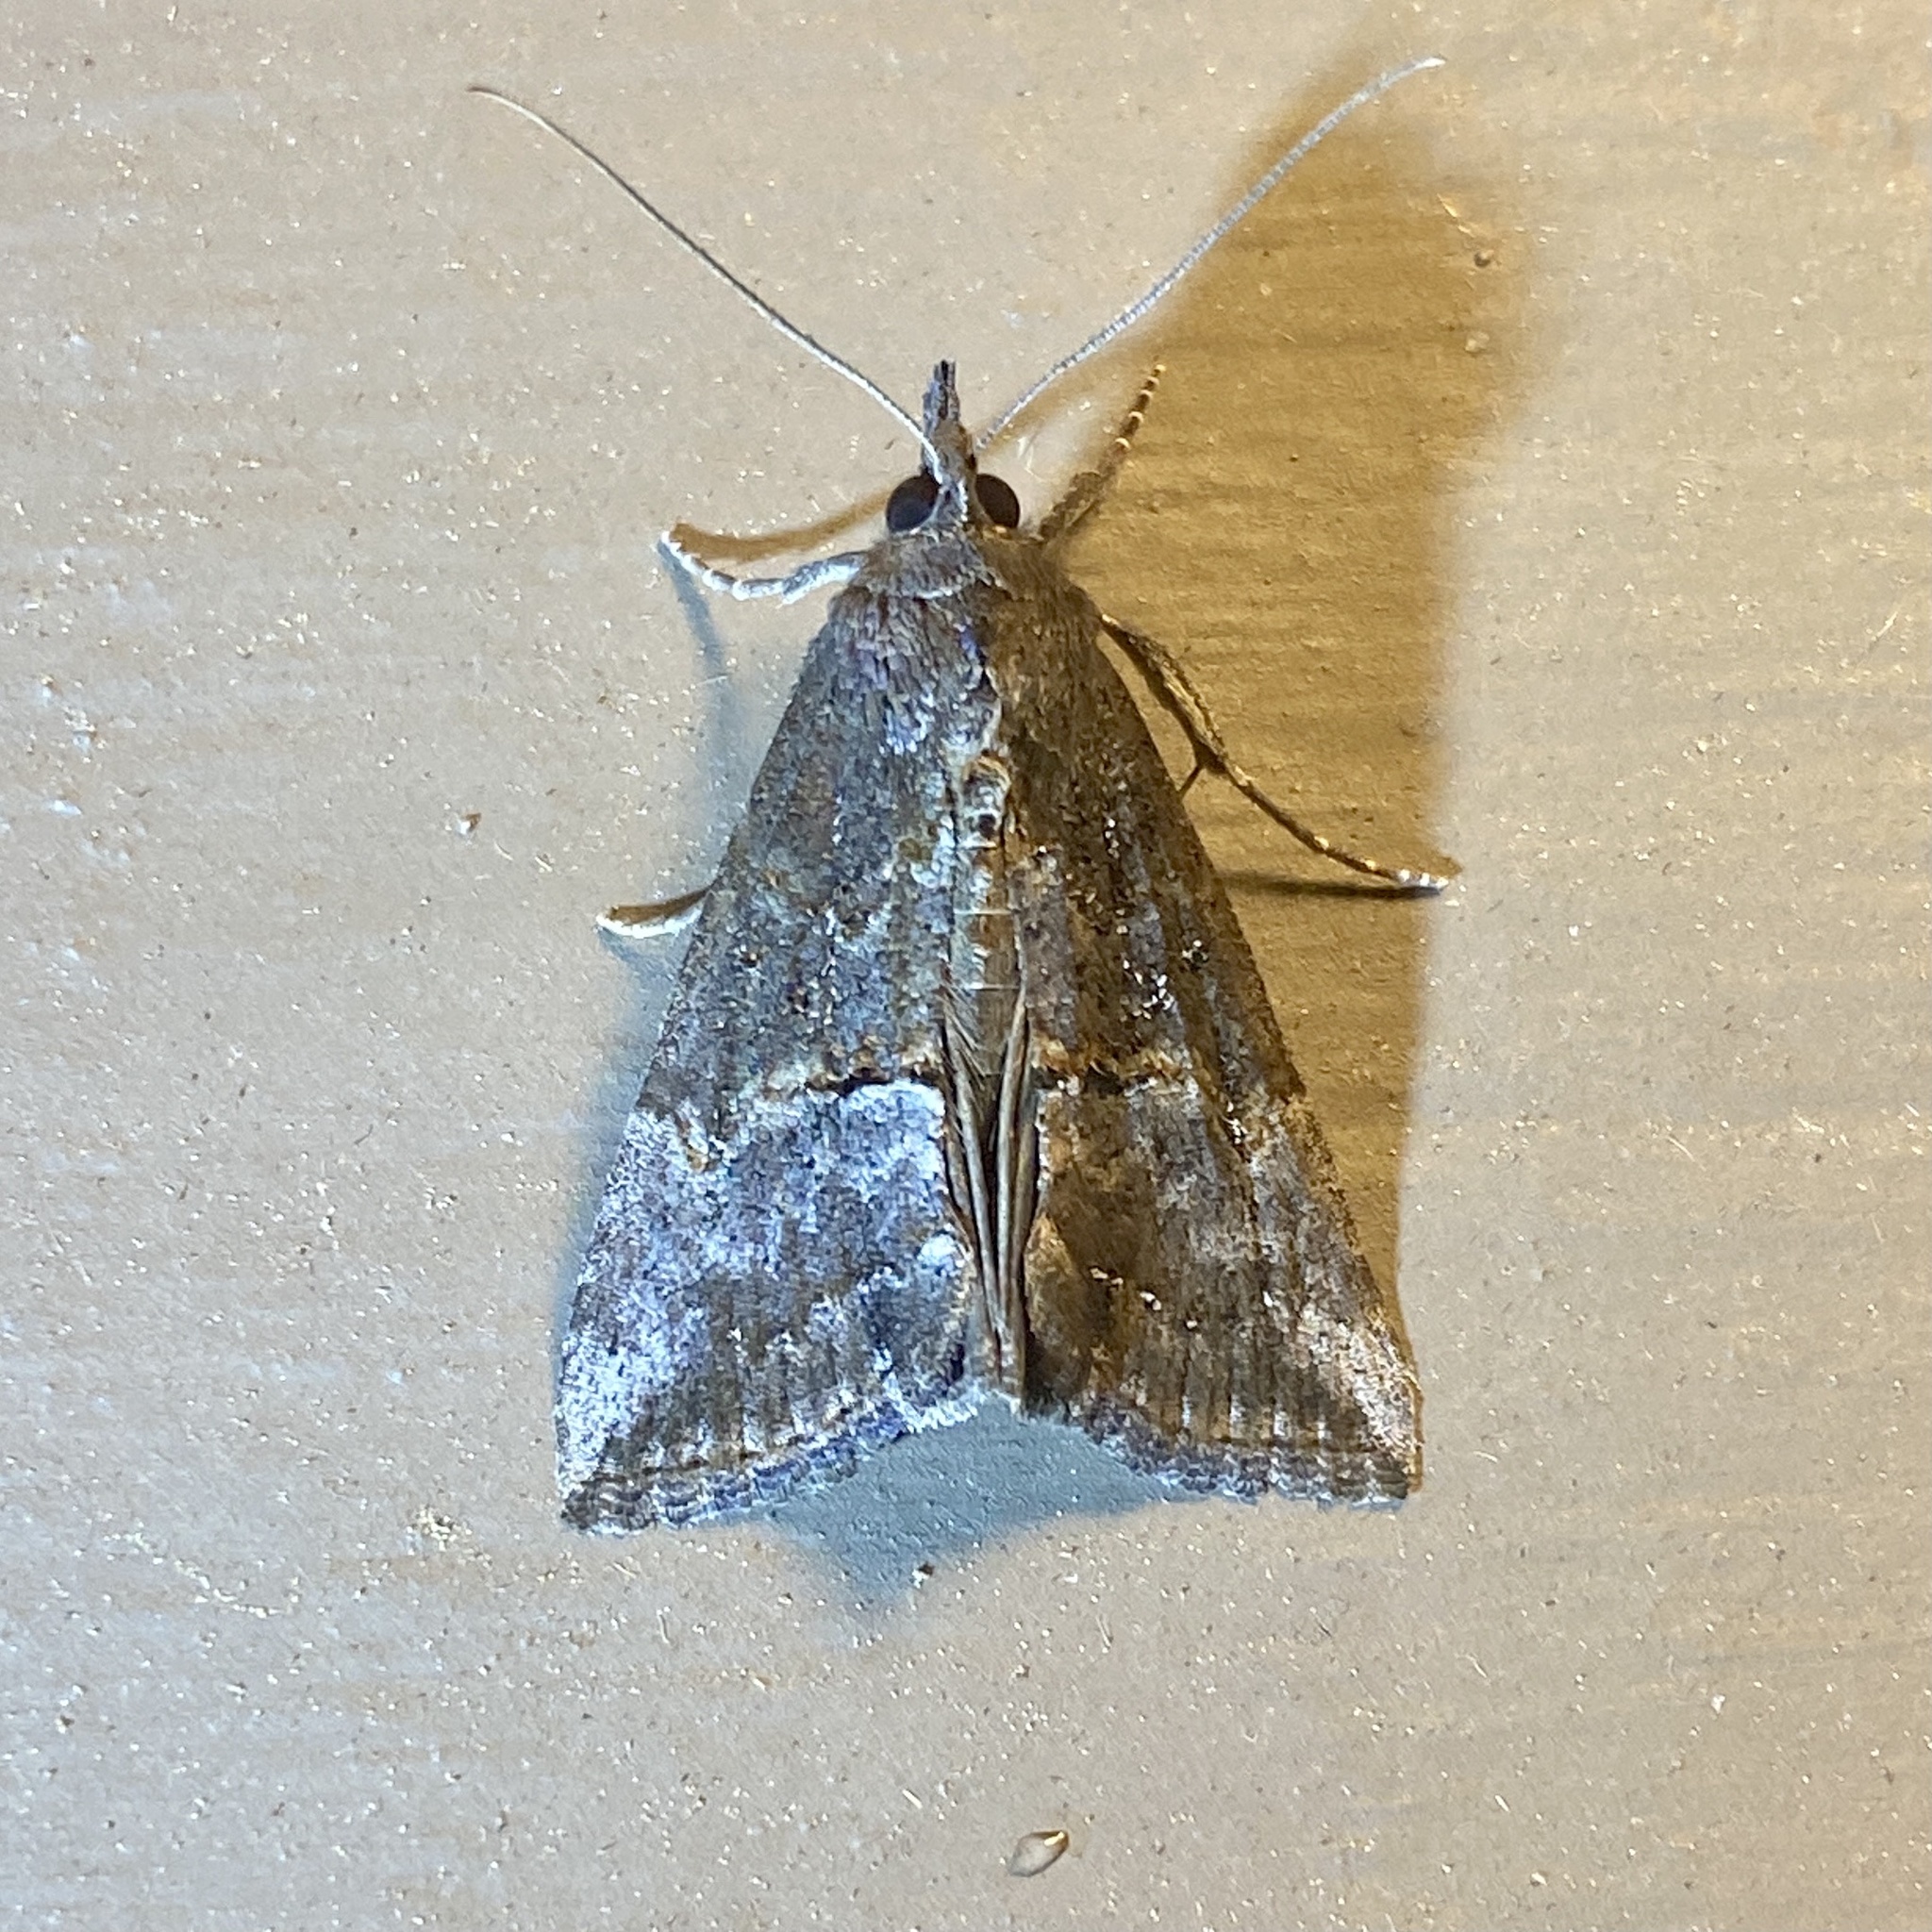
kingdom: Animalia
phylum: Arthropoda
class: Insecta
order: Lepidoptera
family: Erebidae
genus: Hypena
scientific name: Hypena scabra
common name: Green cloverworm
